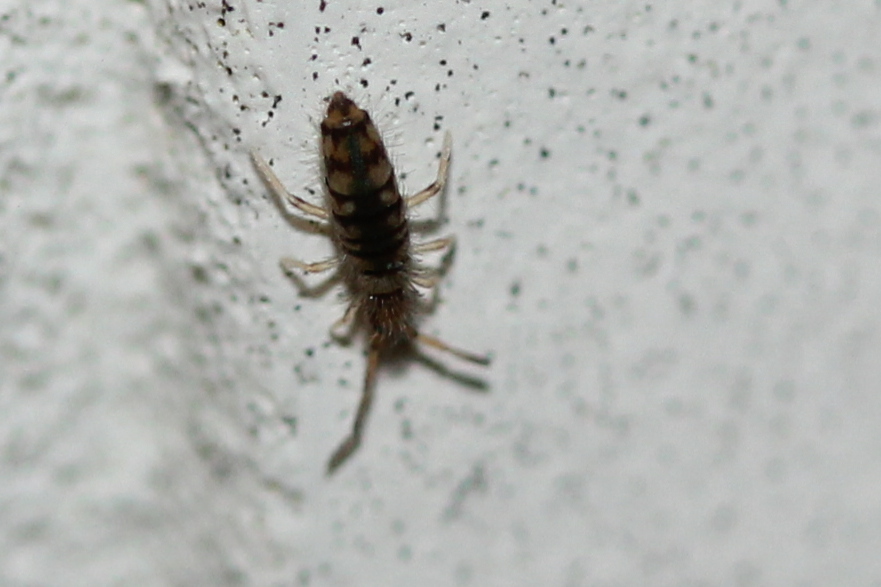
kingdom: Animalia
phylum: Arthropoda
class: Collembola
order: Entomobryomorpha
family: Entomobryidae
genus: Entomobrya
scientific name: Entomobrya atrocincta
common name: Springtail
